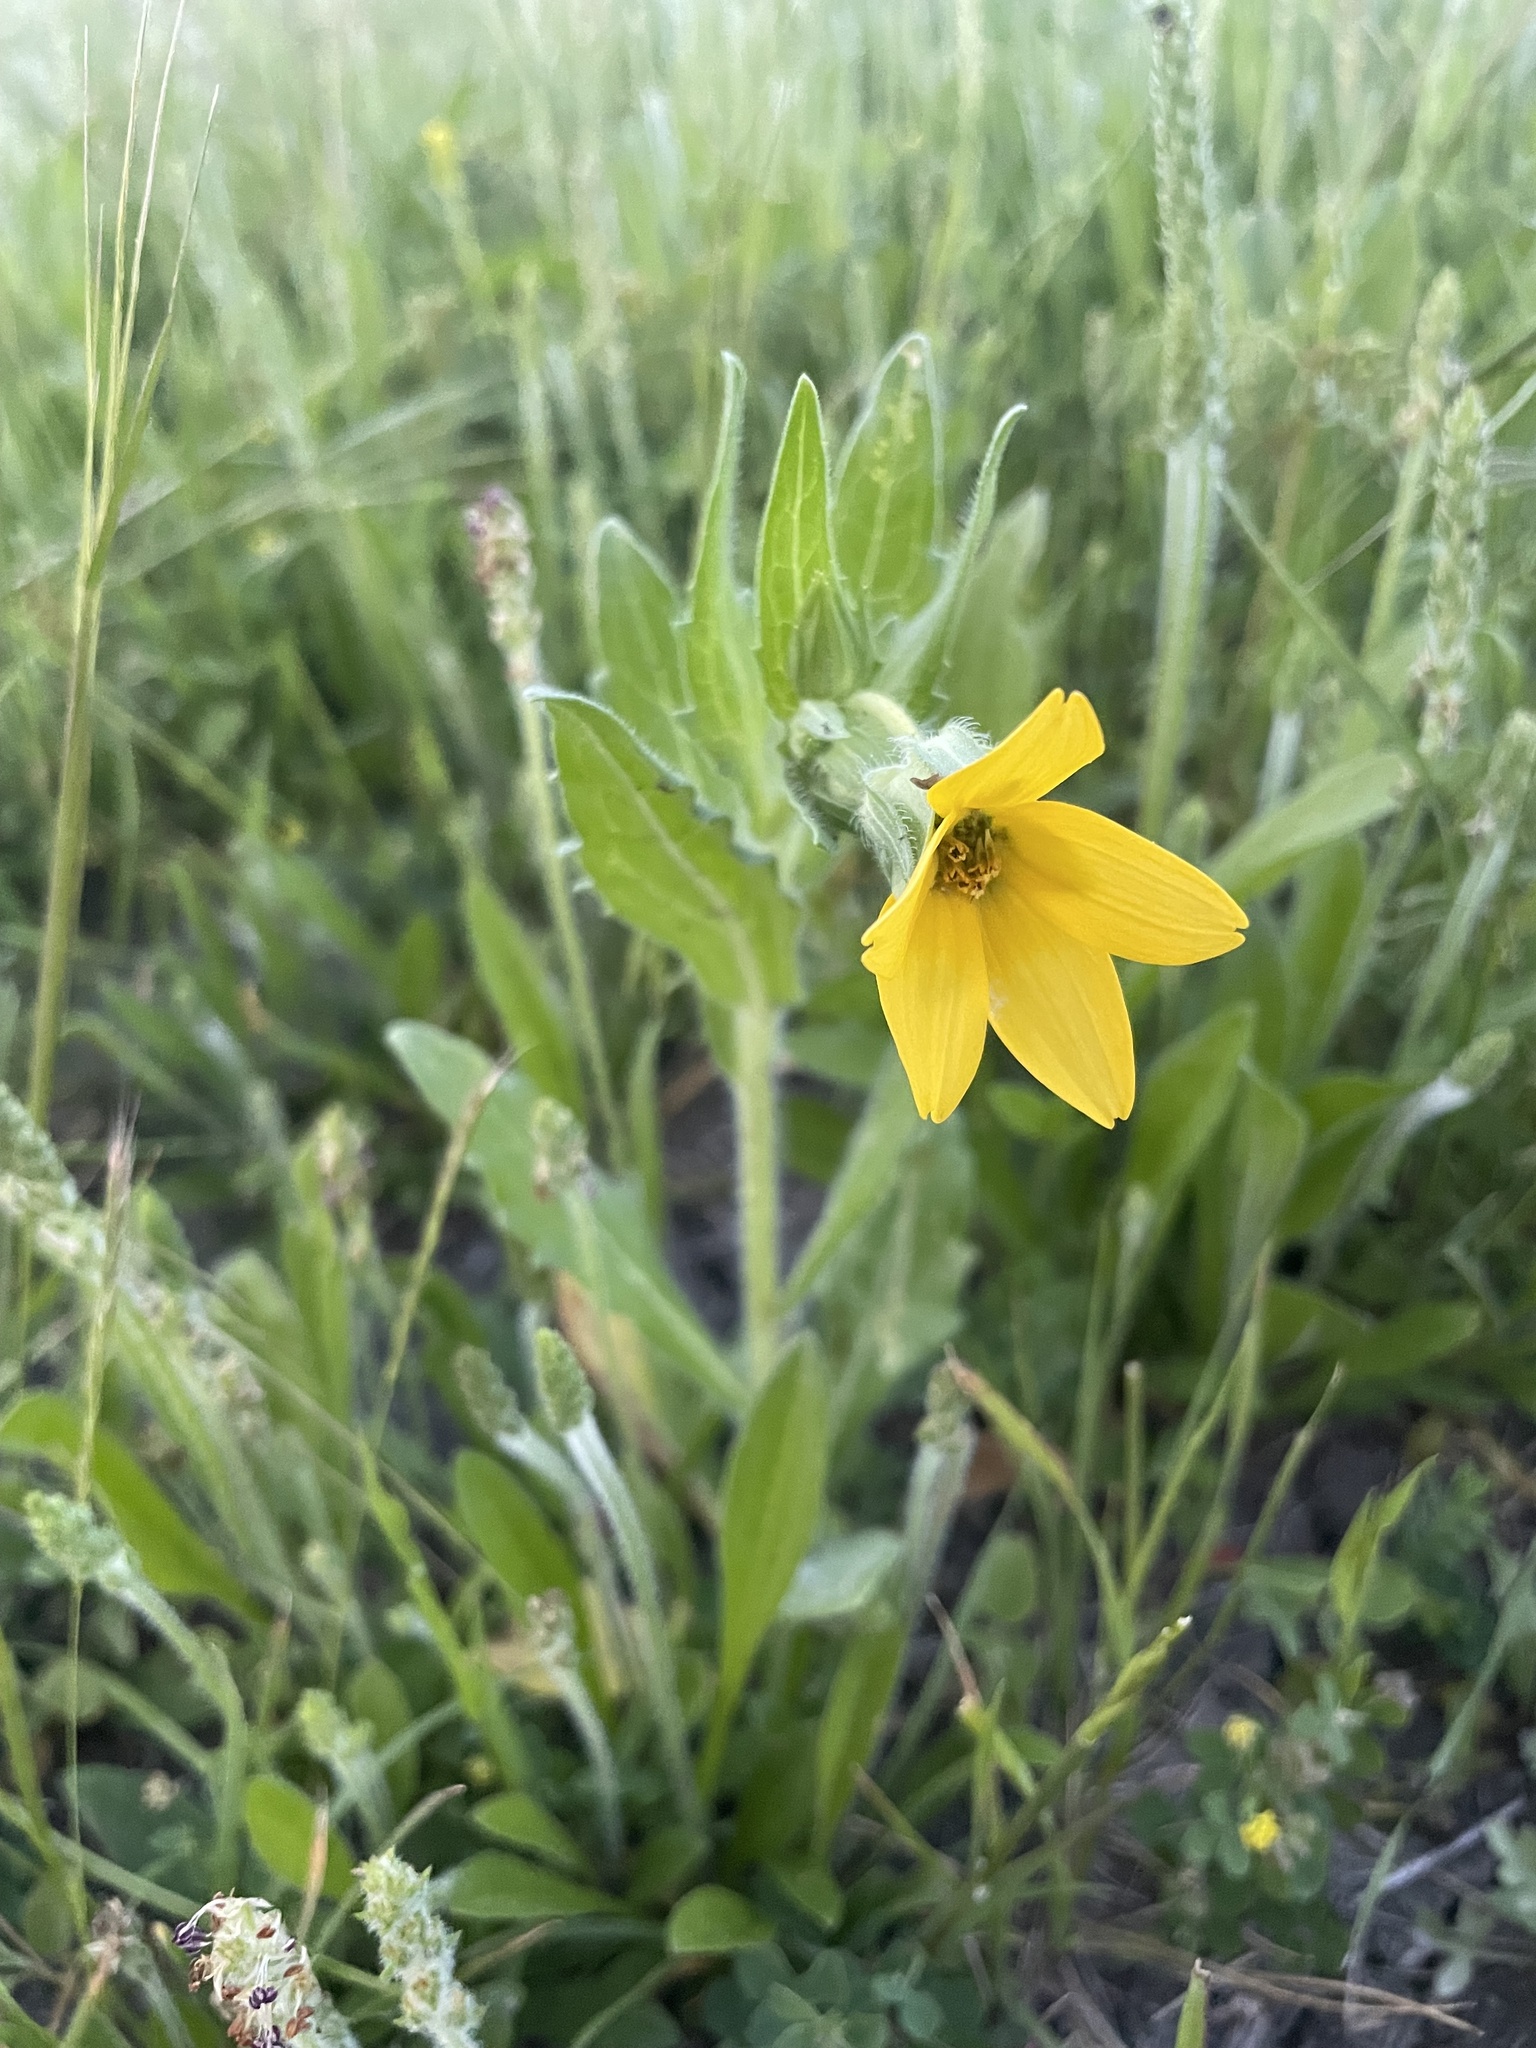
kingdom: Plantae
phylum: Tracheophyta
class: Magnoliopsida
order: Asterales
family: Asteraceae
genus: Lindheimera
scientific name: Lindheimera texana
